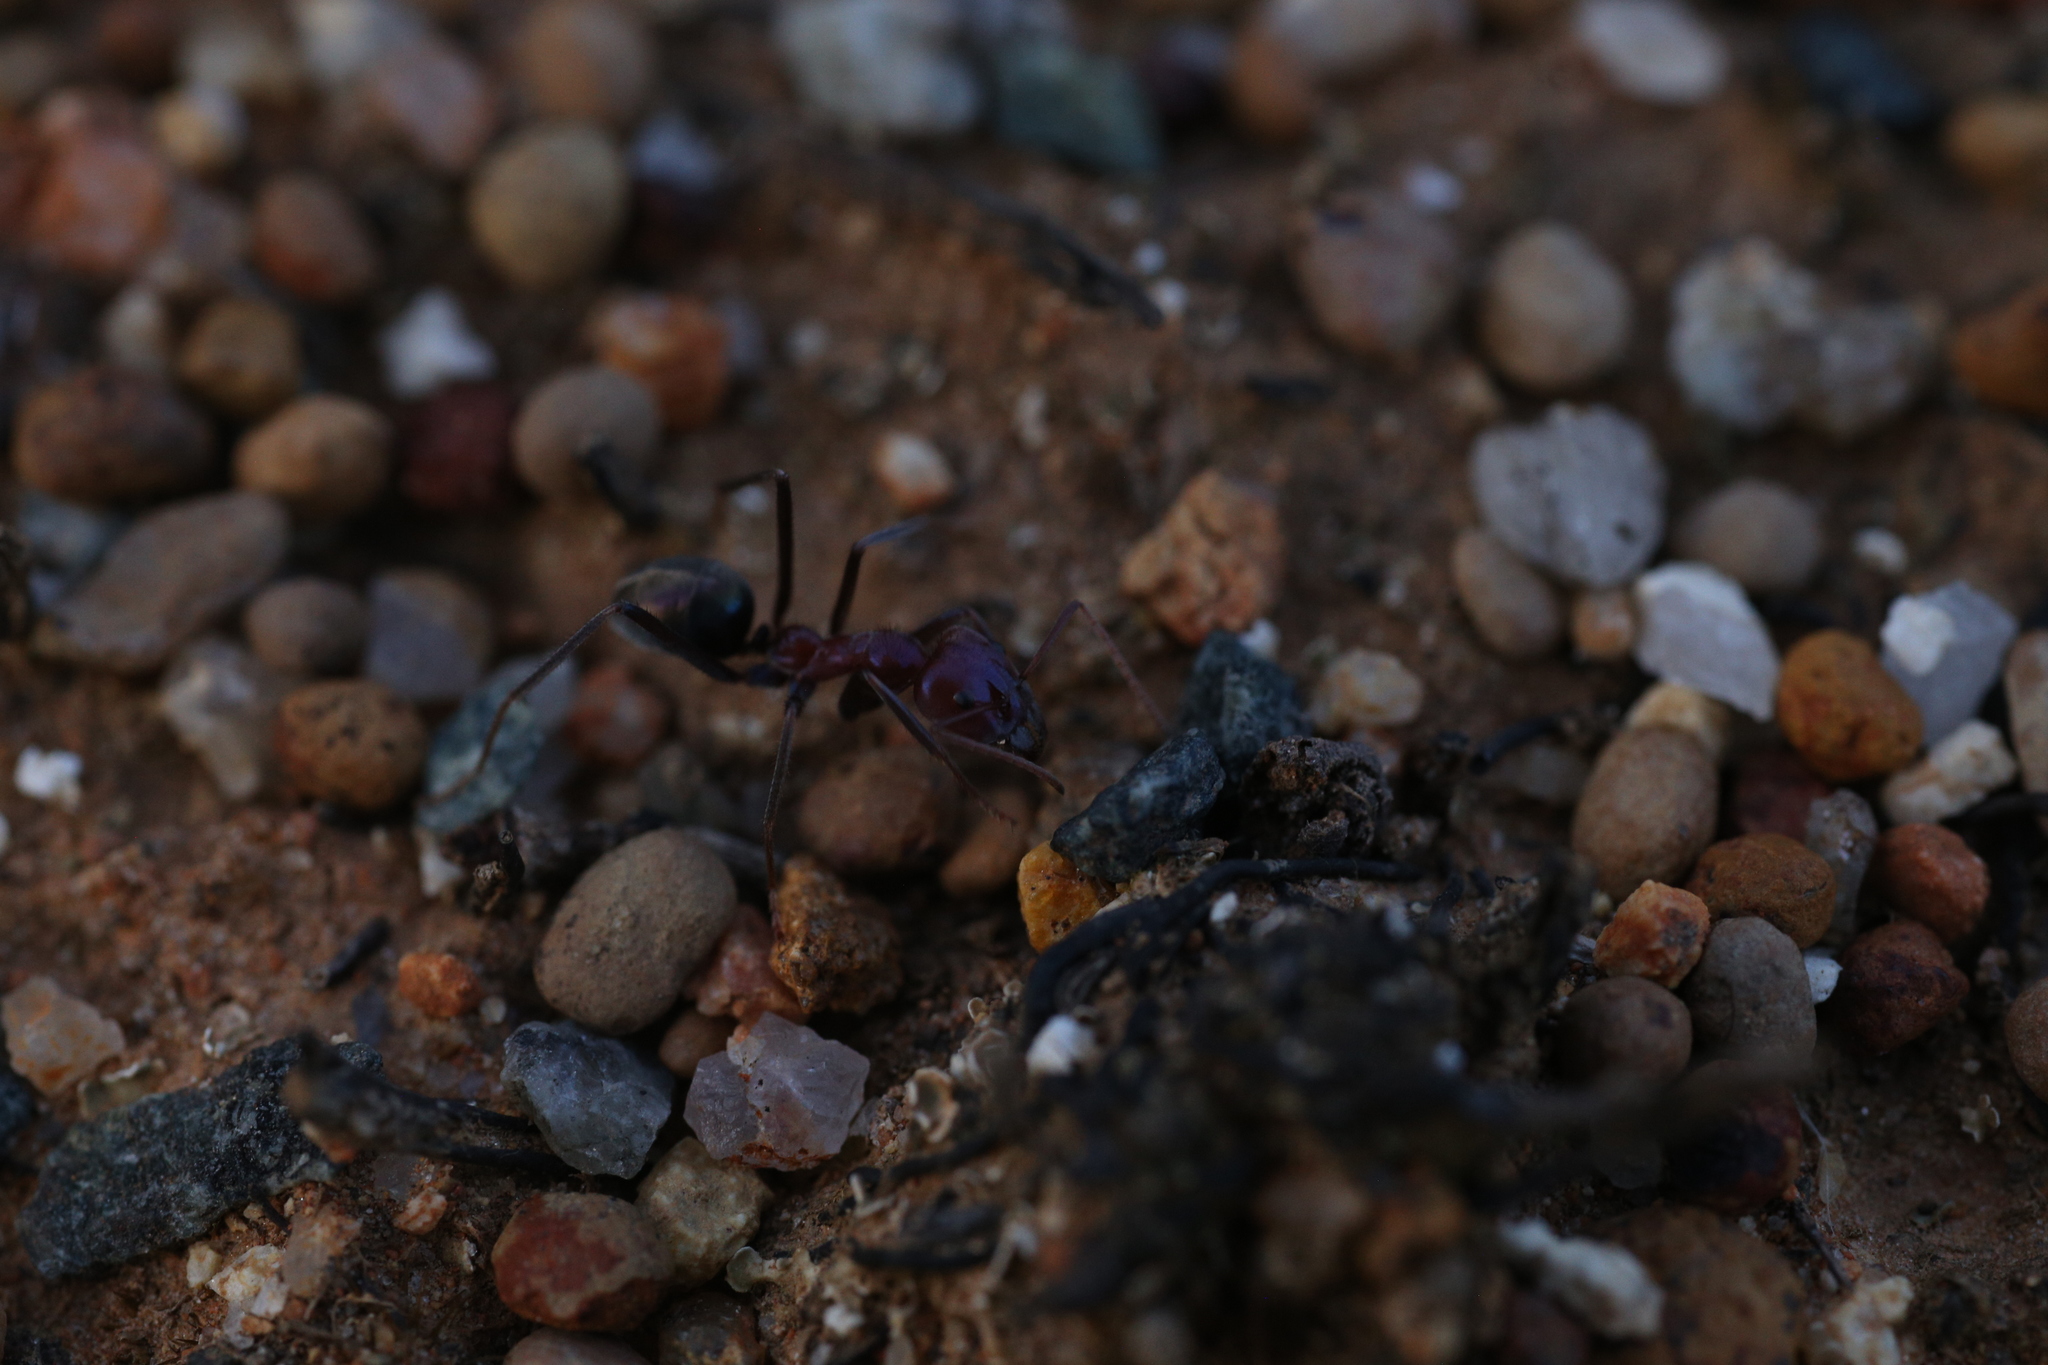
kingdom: Animalia
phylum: Arthropoda
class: Insecta
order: Hymenoptera
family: Formicidae
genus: Iridomyrmex
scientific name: Iridomyrmex purpureus
